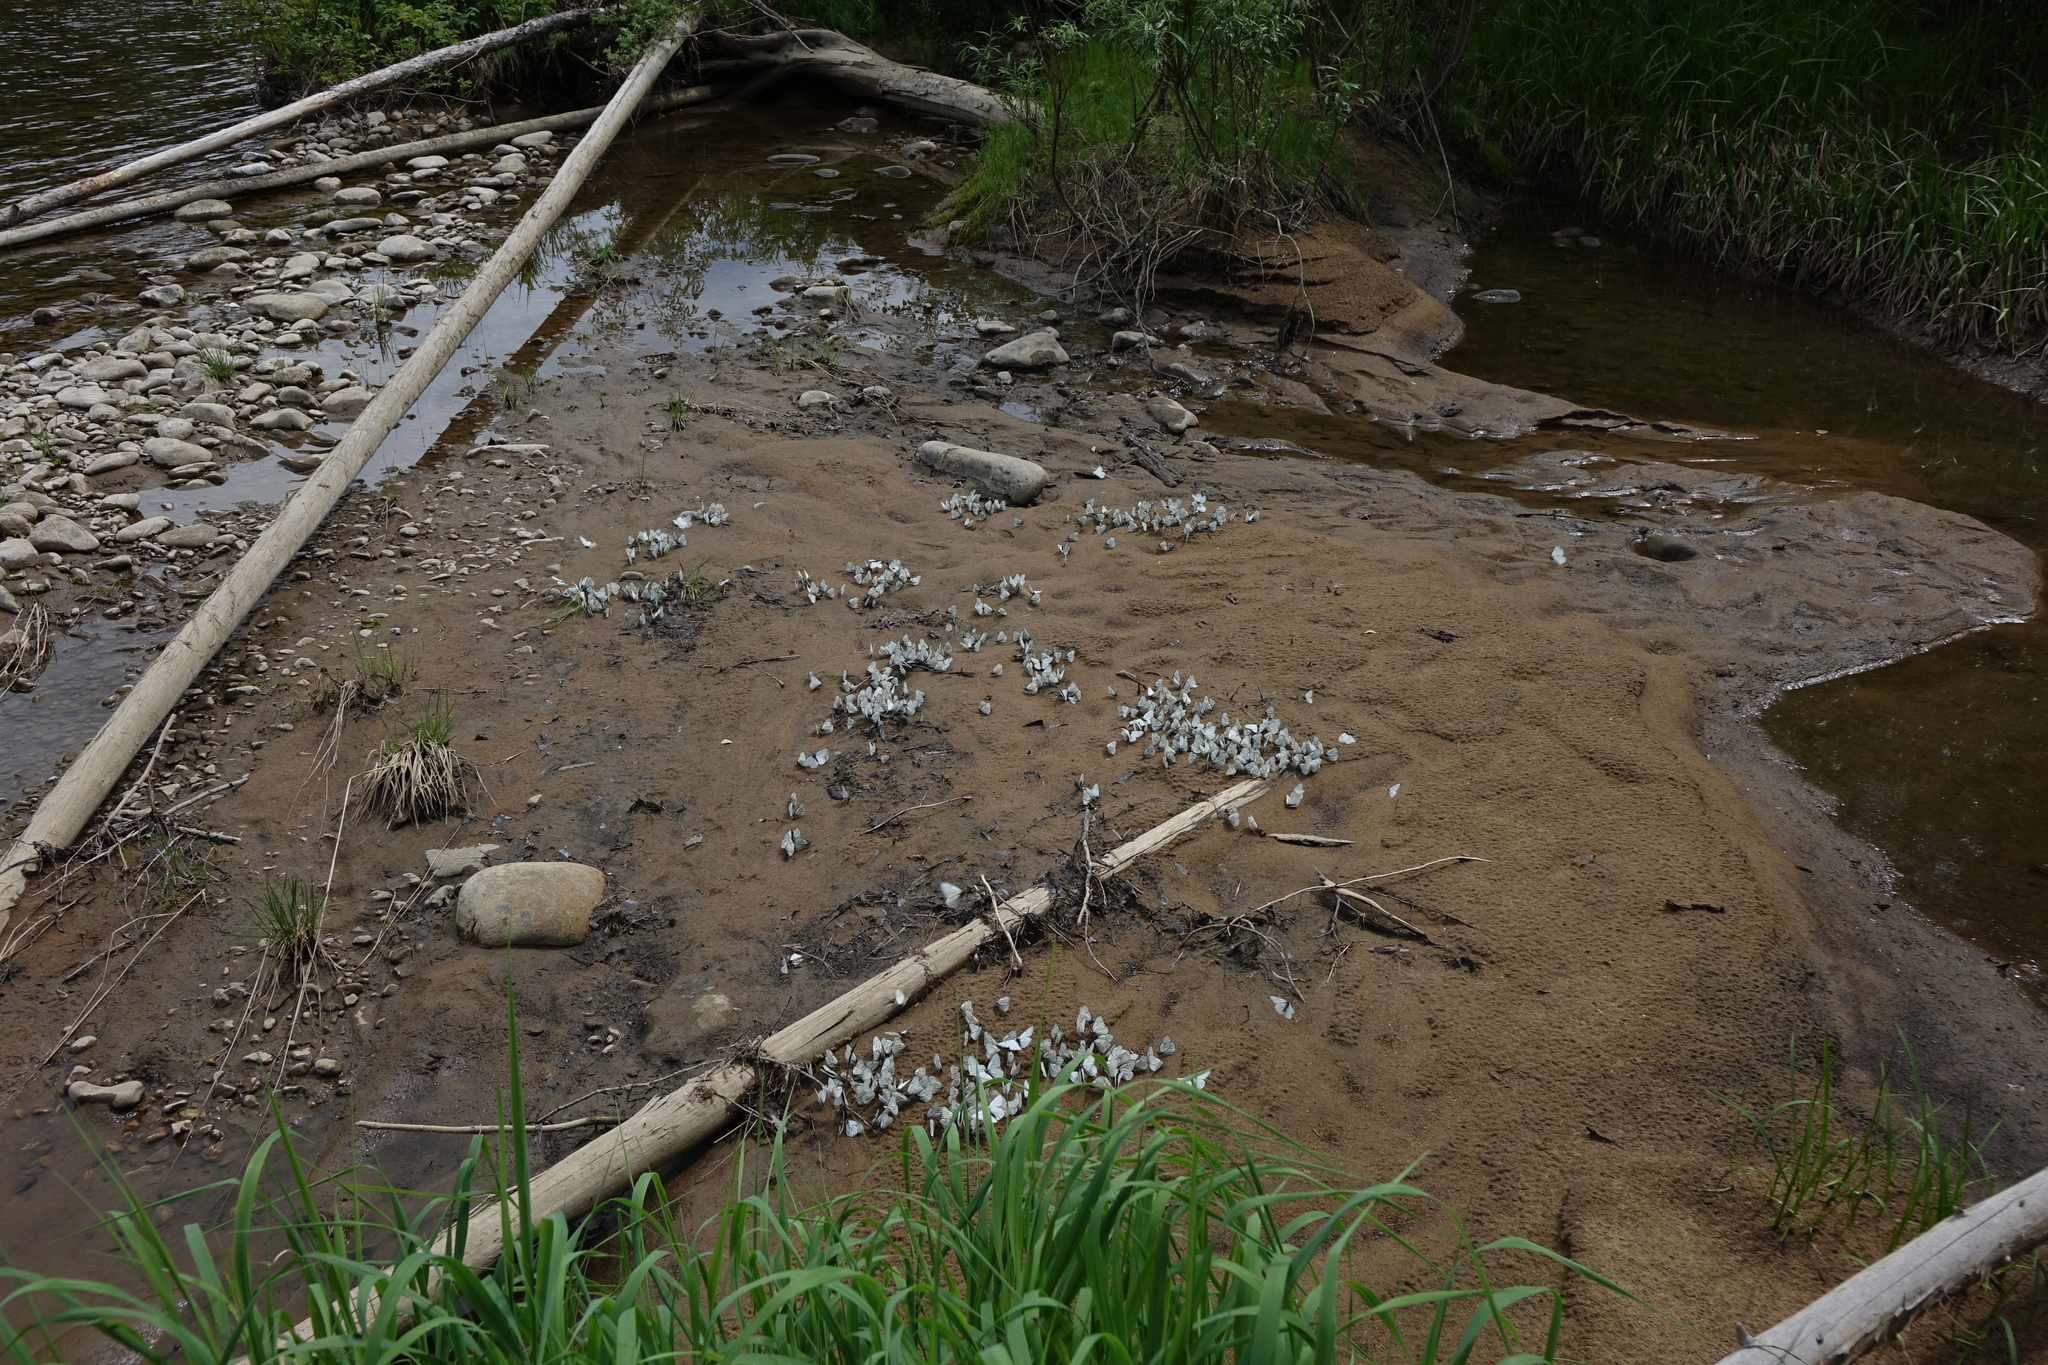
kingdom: Animalia
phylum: Arthropoda
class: Insecta
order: Lepidoptera
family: Pieridae
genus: Aporia
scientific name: Aporia crataegi
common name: Black-veined white
